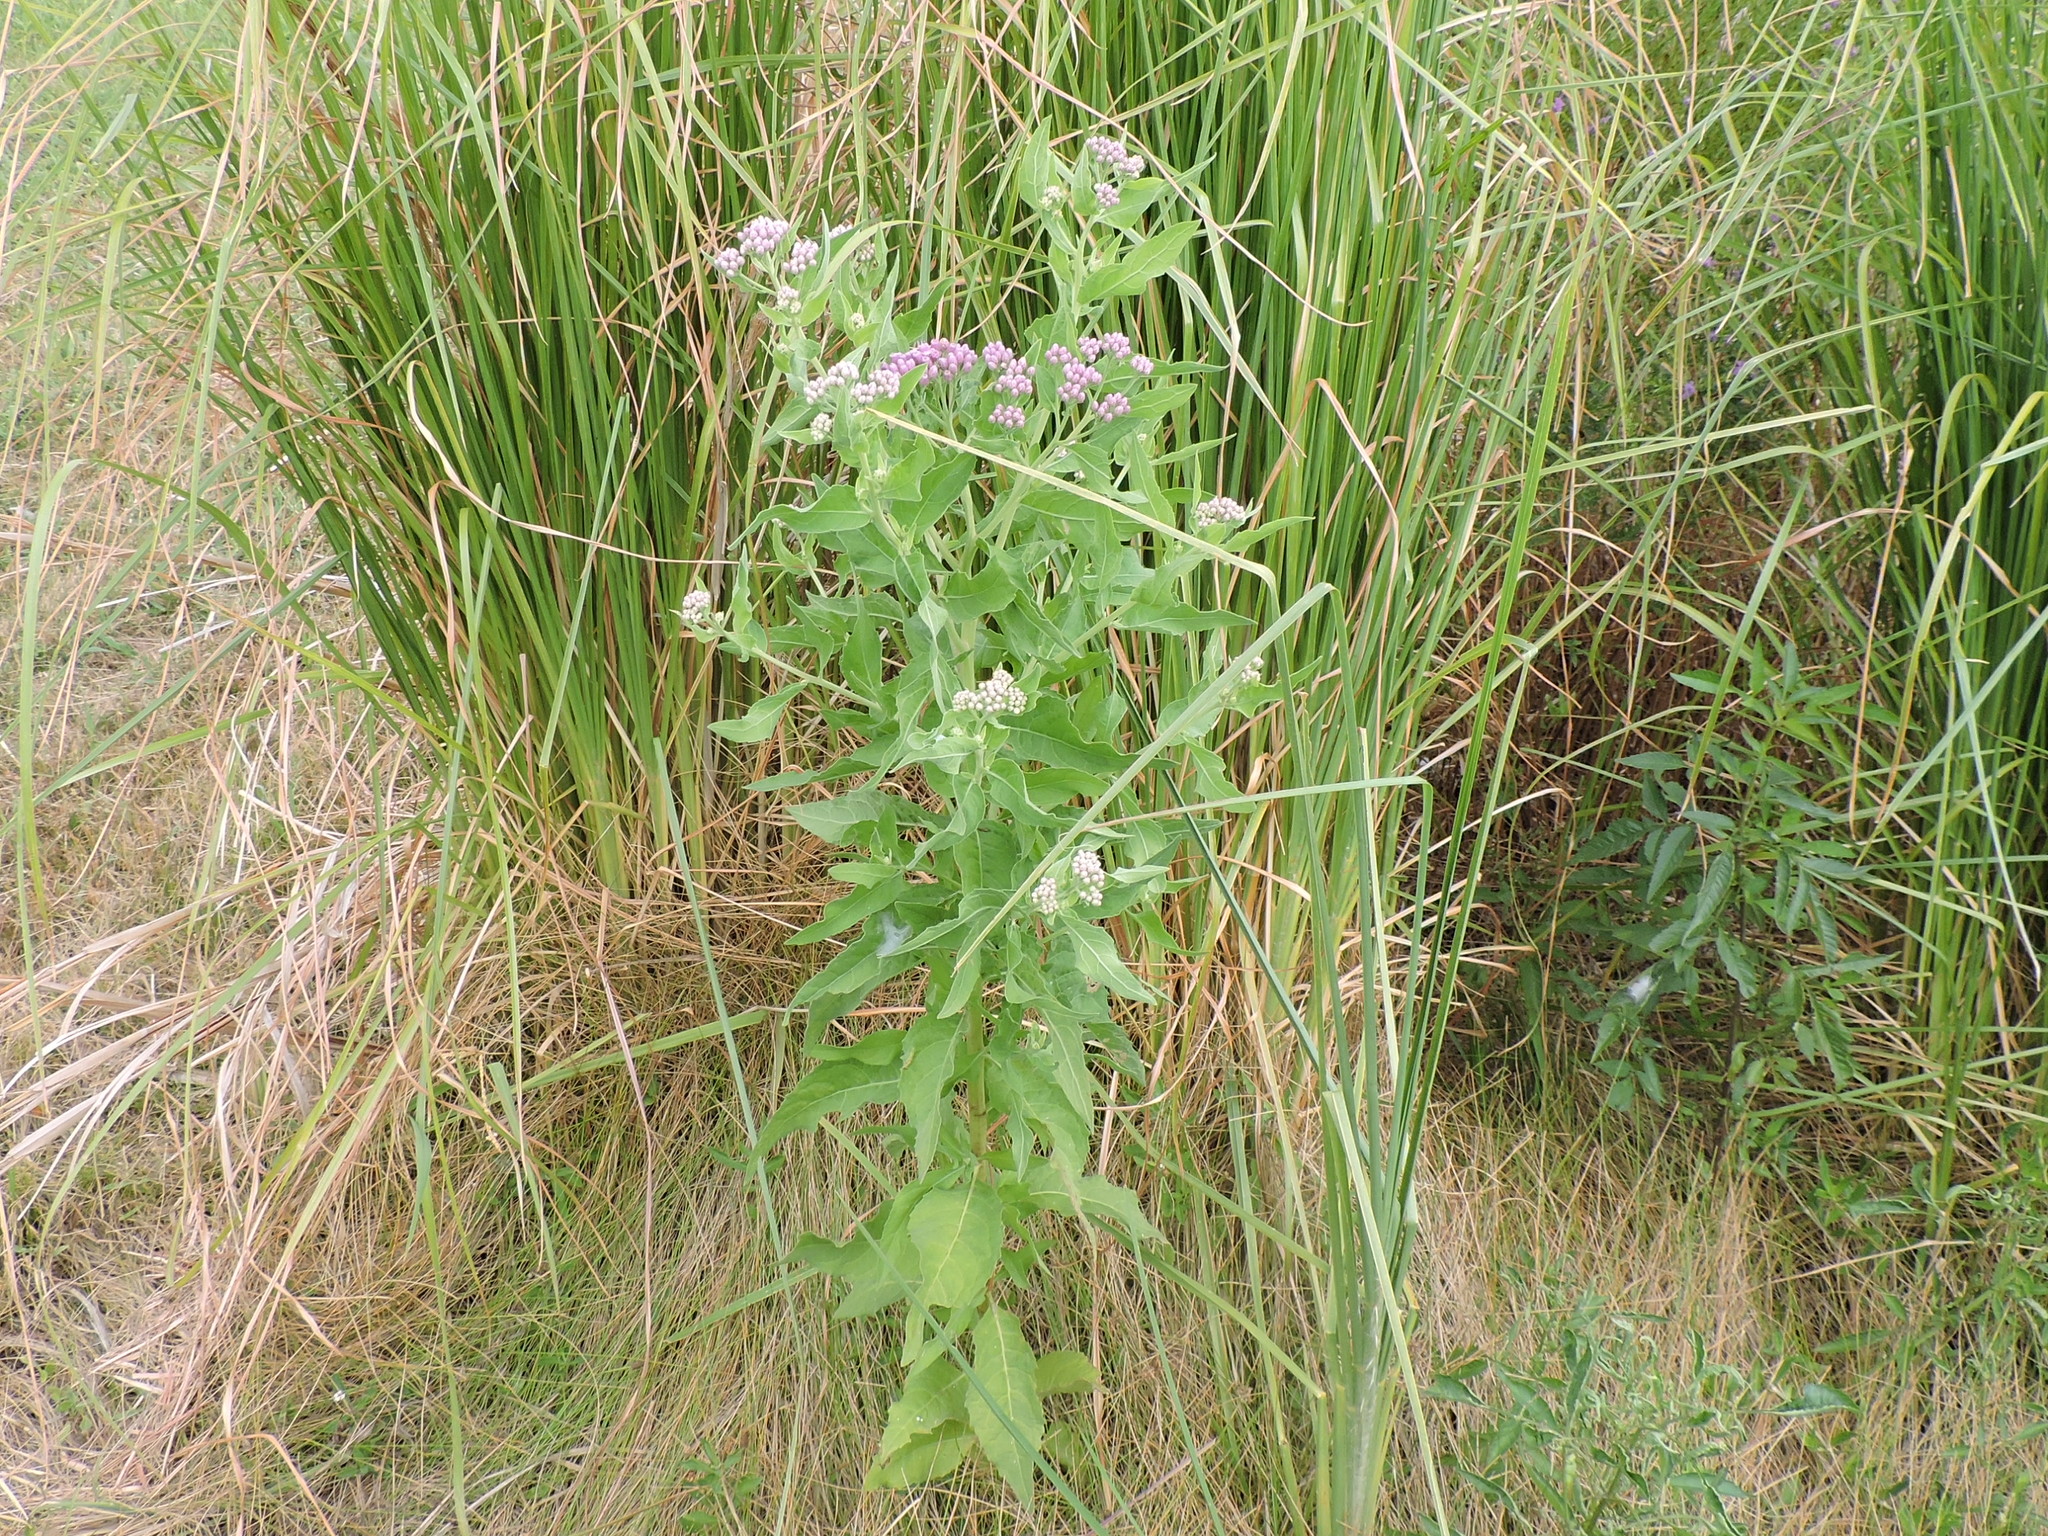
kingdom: Plantae
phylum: Tracheophyta
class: Magnoliopsida
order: Asterales
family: Asteraceae
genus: Pluchea
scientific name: Pluchea odorata
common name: Saltmarsh fleabane
